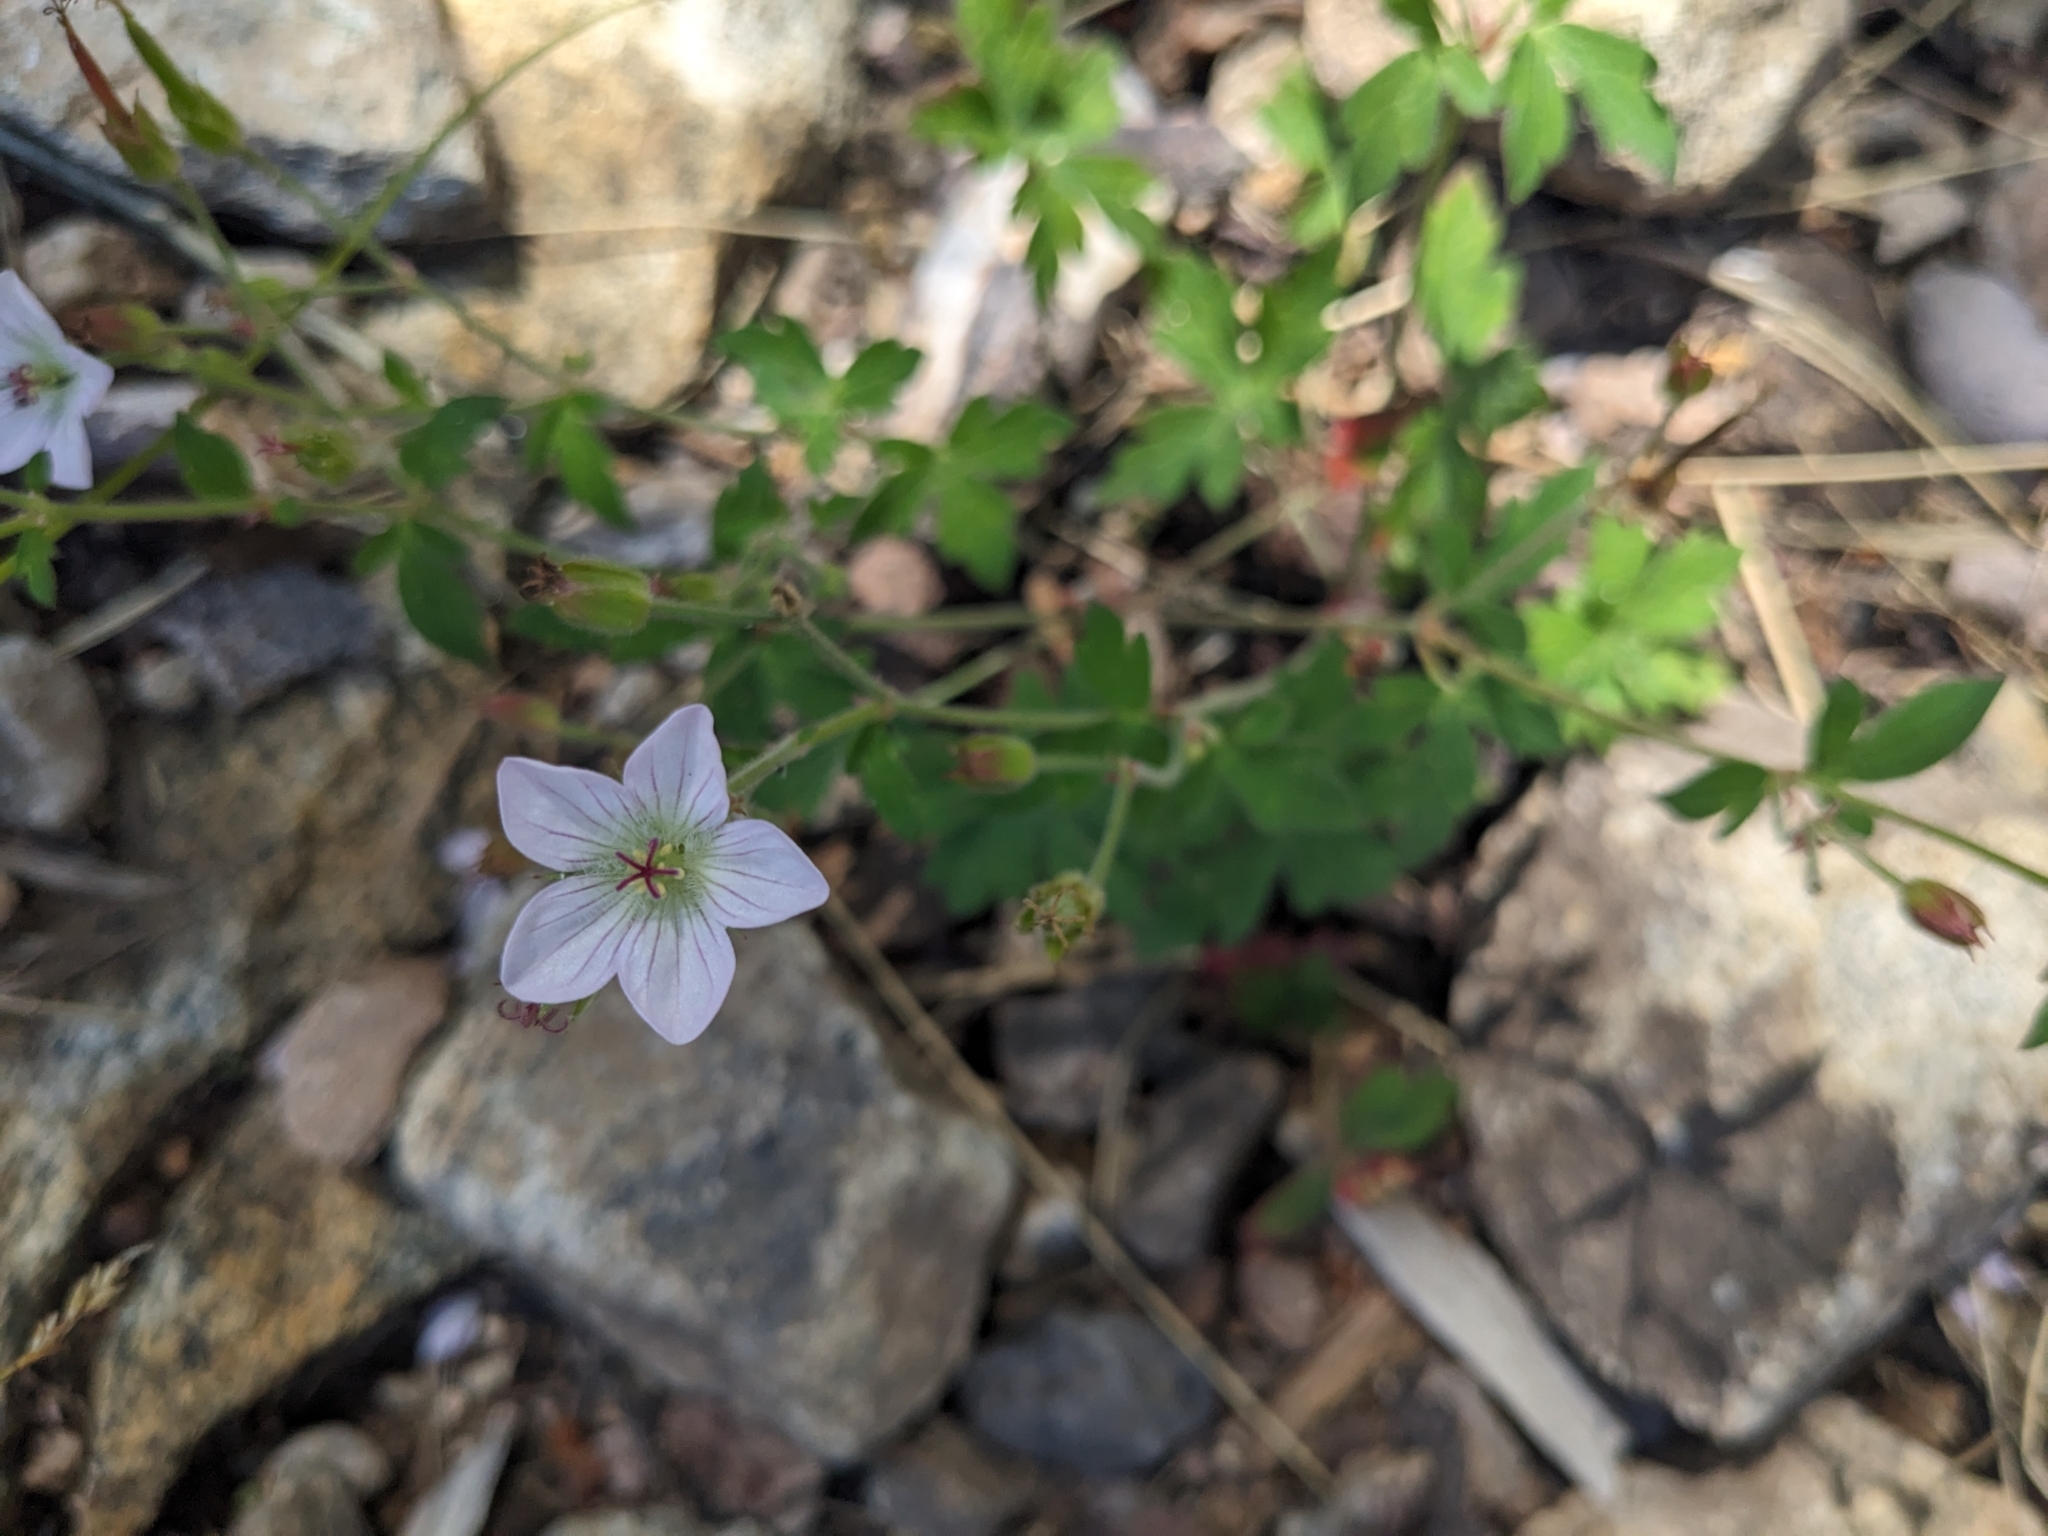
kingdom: Plantae
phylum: Tracheophyta
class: Magnoliopsida
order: Geraniales
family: Geraniaceae
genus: Geranium
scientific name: Geranium richardsonii
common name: Richardson's crane's-bill
